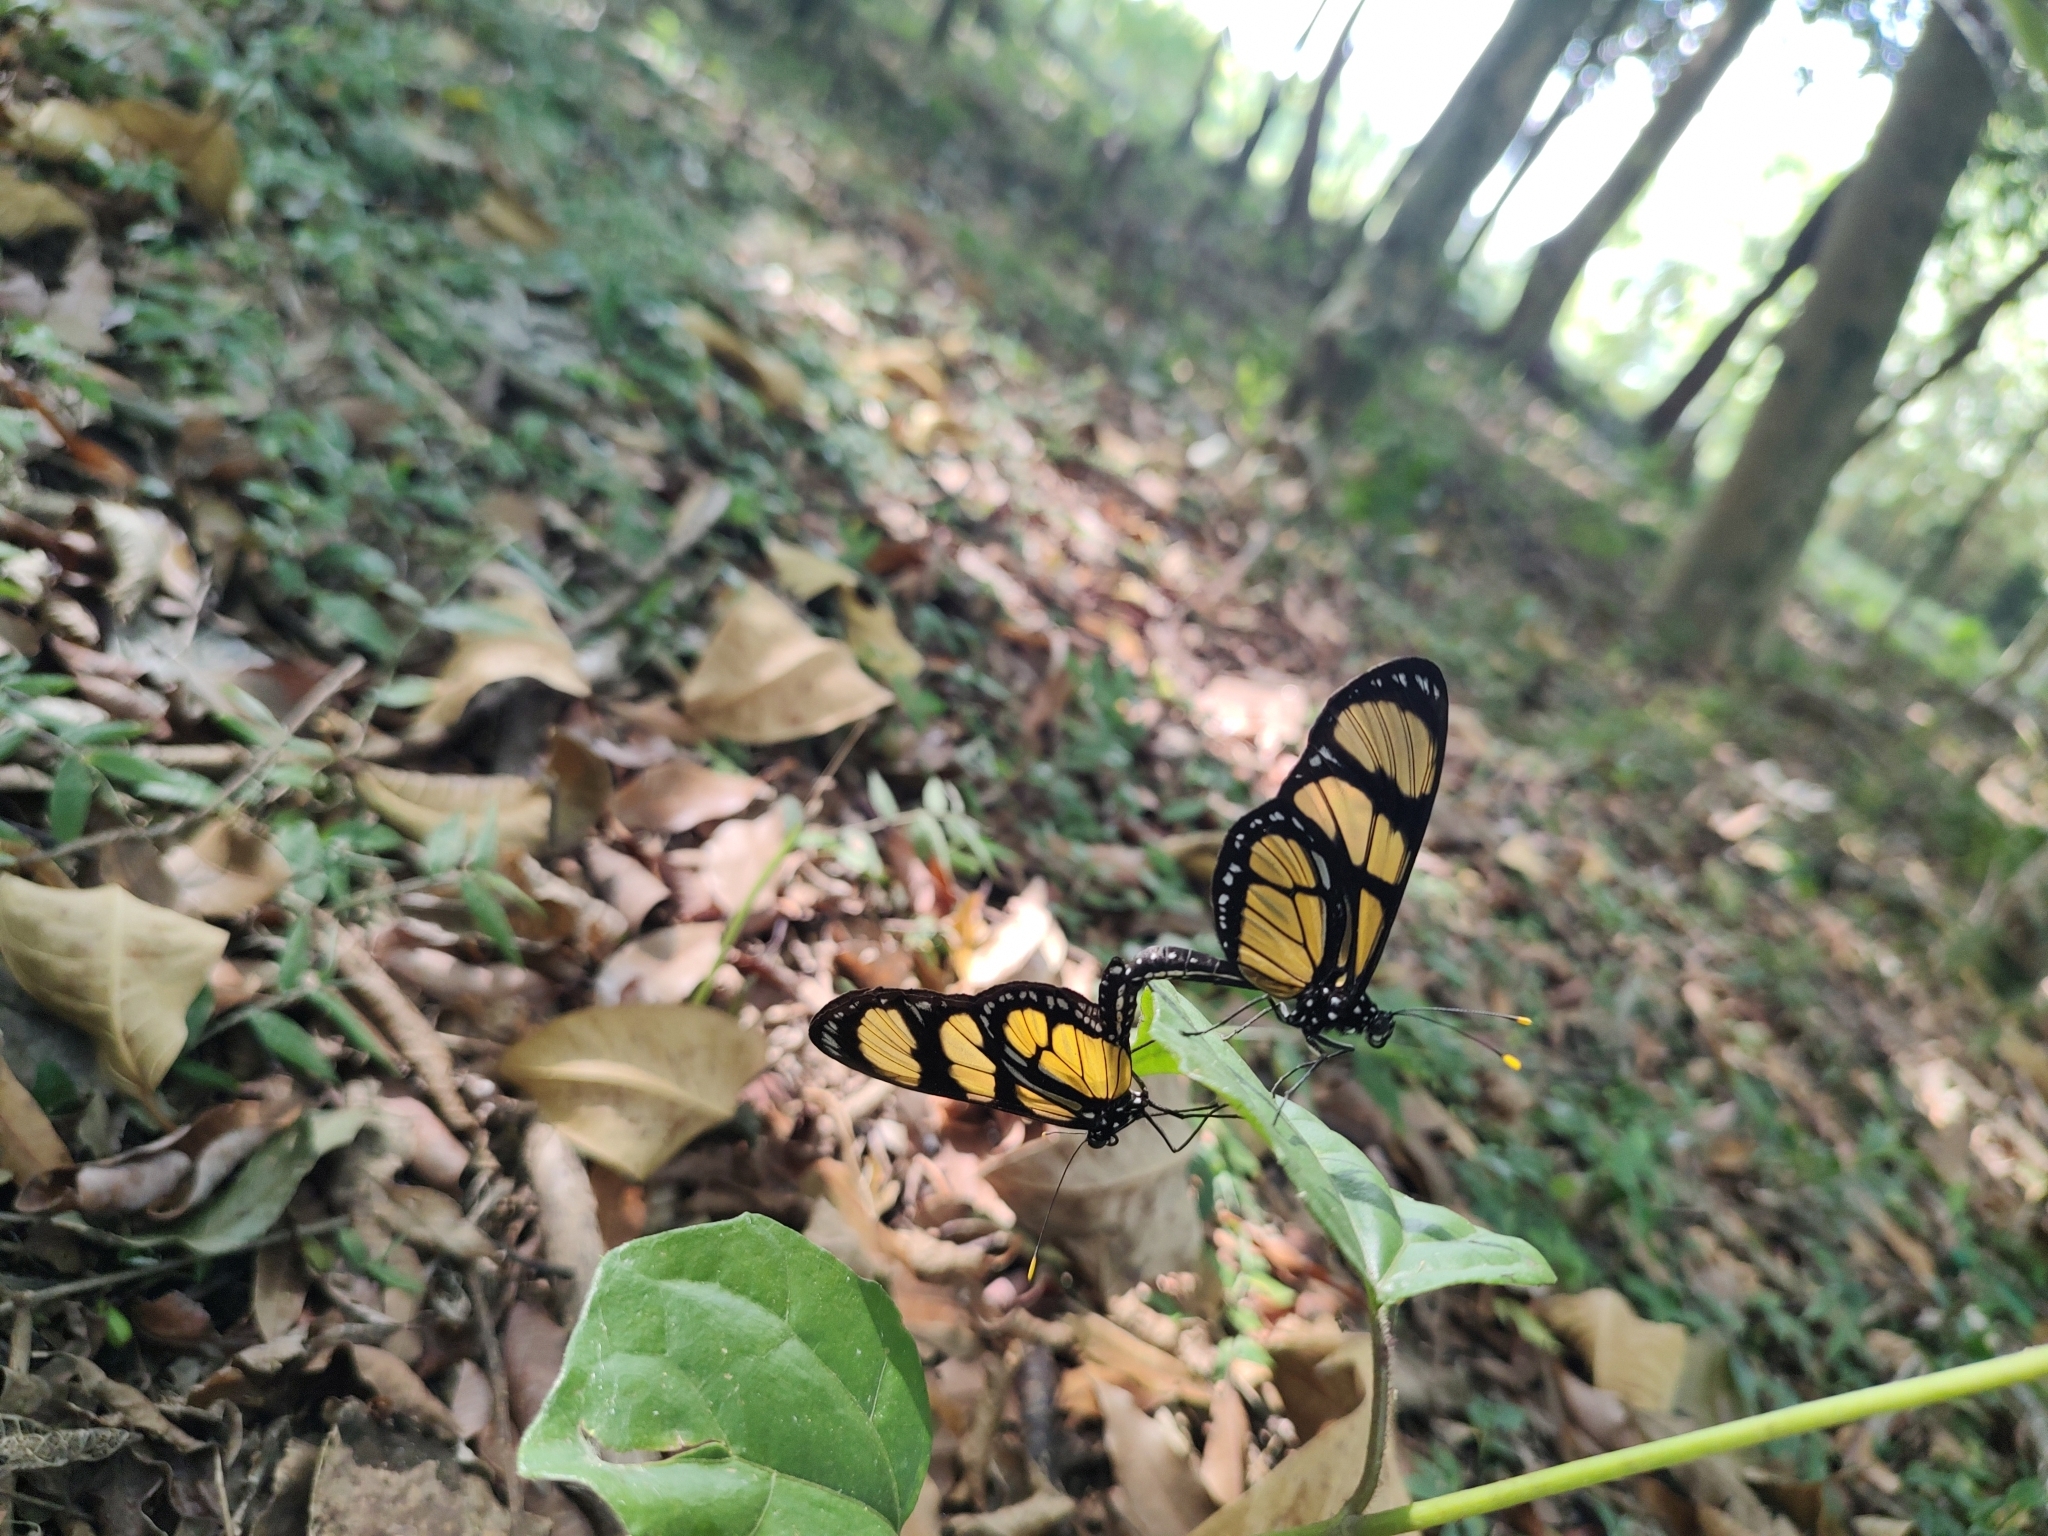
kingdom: Animalia
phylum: Arthropoda
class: Insecta
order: Lepidoptera
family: Nymphalidae
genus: Methona
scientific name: Methona themisto
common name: Themisto amberwing
